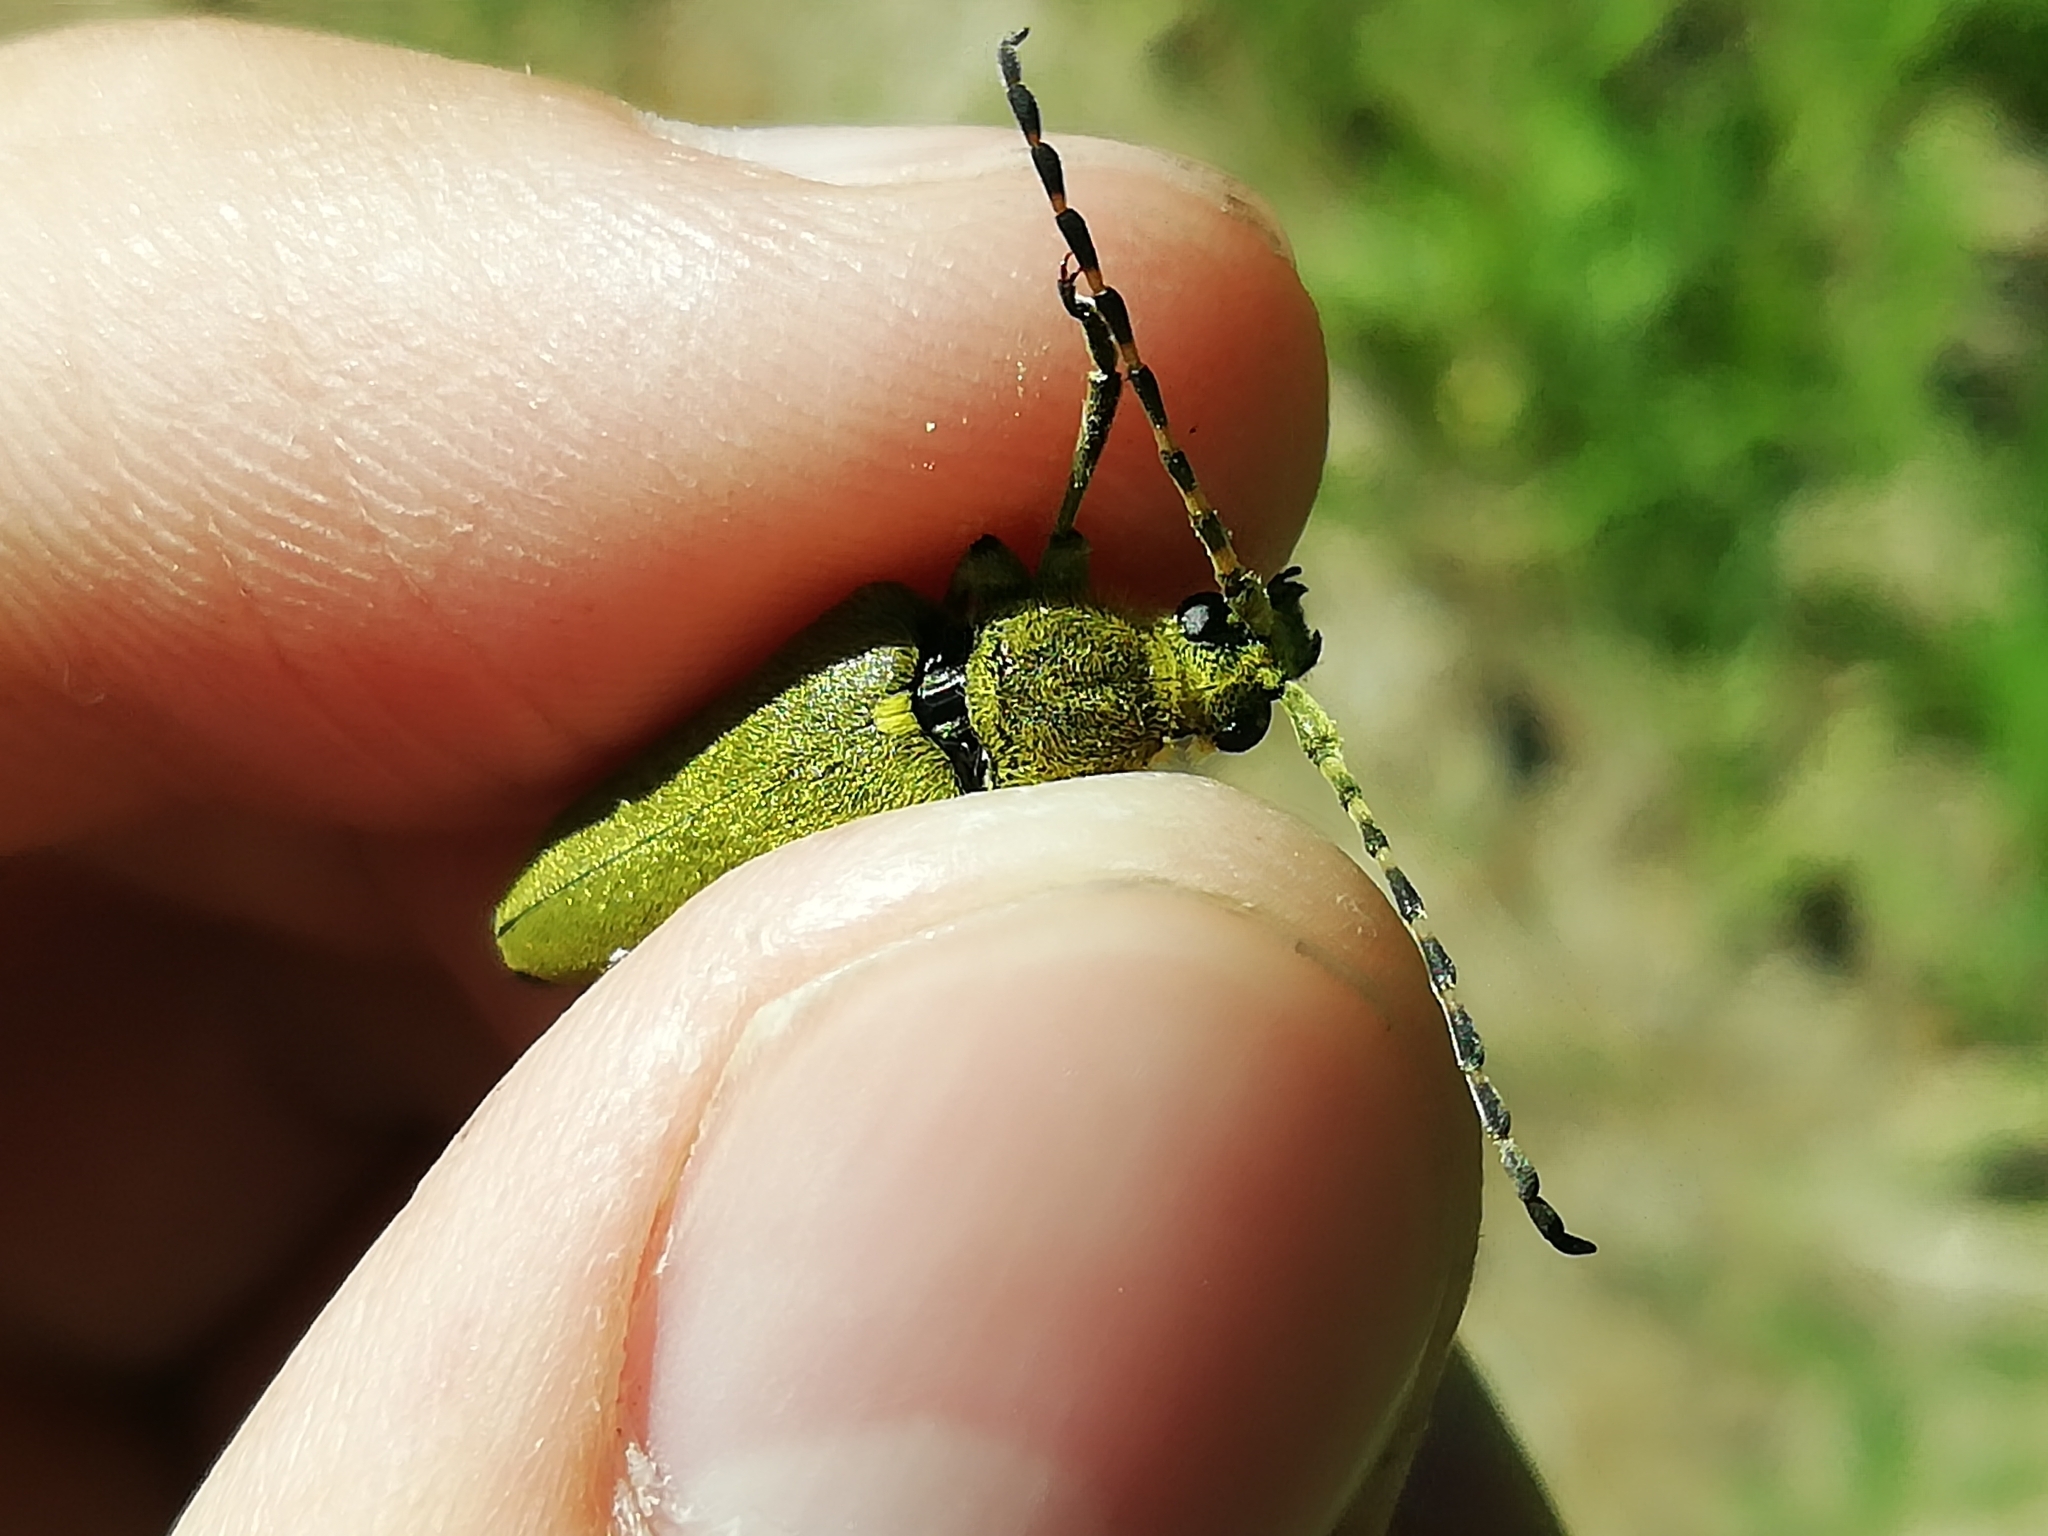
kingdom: Animalia
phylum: Arthropoda
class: Insecta
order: Coleoptera
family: Cerambycidae
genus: Lepturobosca
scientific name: Lepturobosca virens
